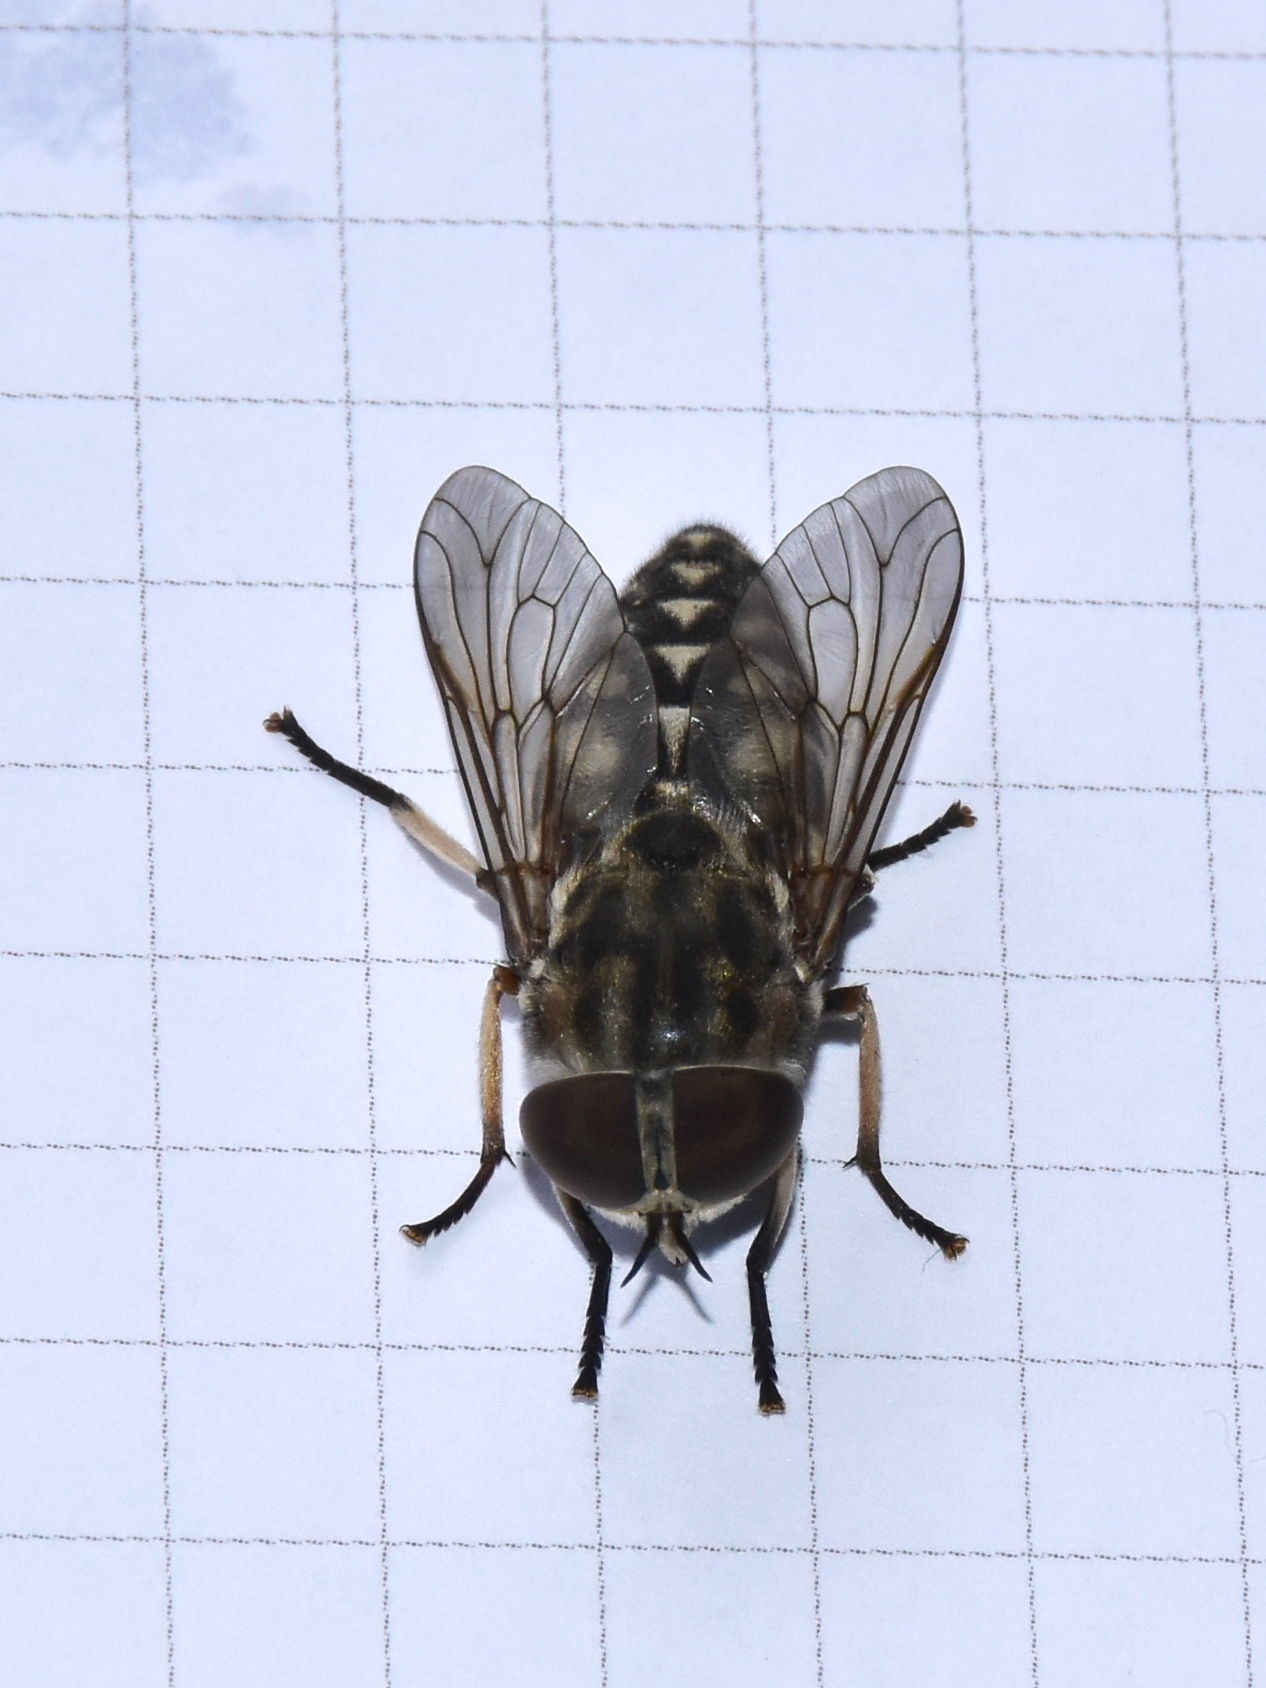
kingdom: Animalia
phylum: Arthropoda
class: Insecta
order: Diptera
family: Tabanidae
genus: Tabanus
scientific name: Tabanus autumnalis
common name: Large marsh horsefly
